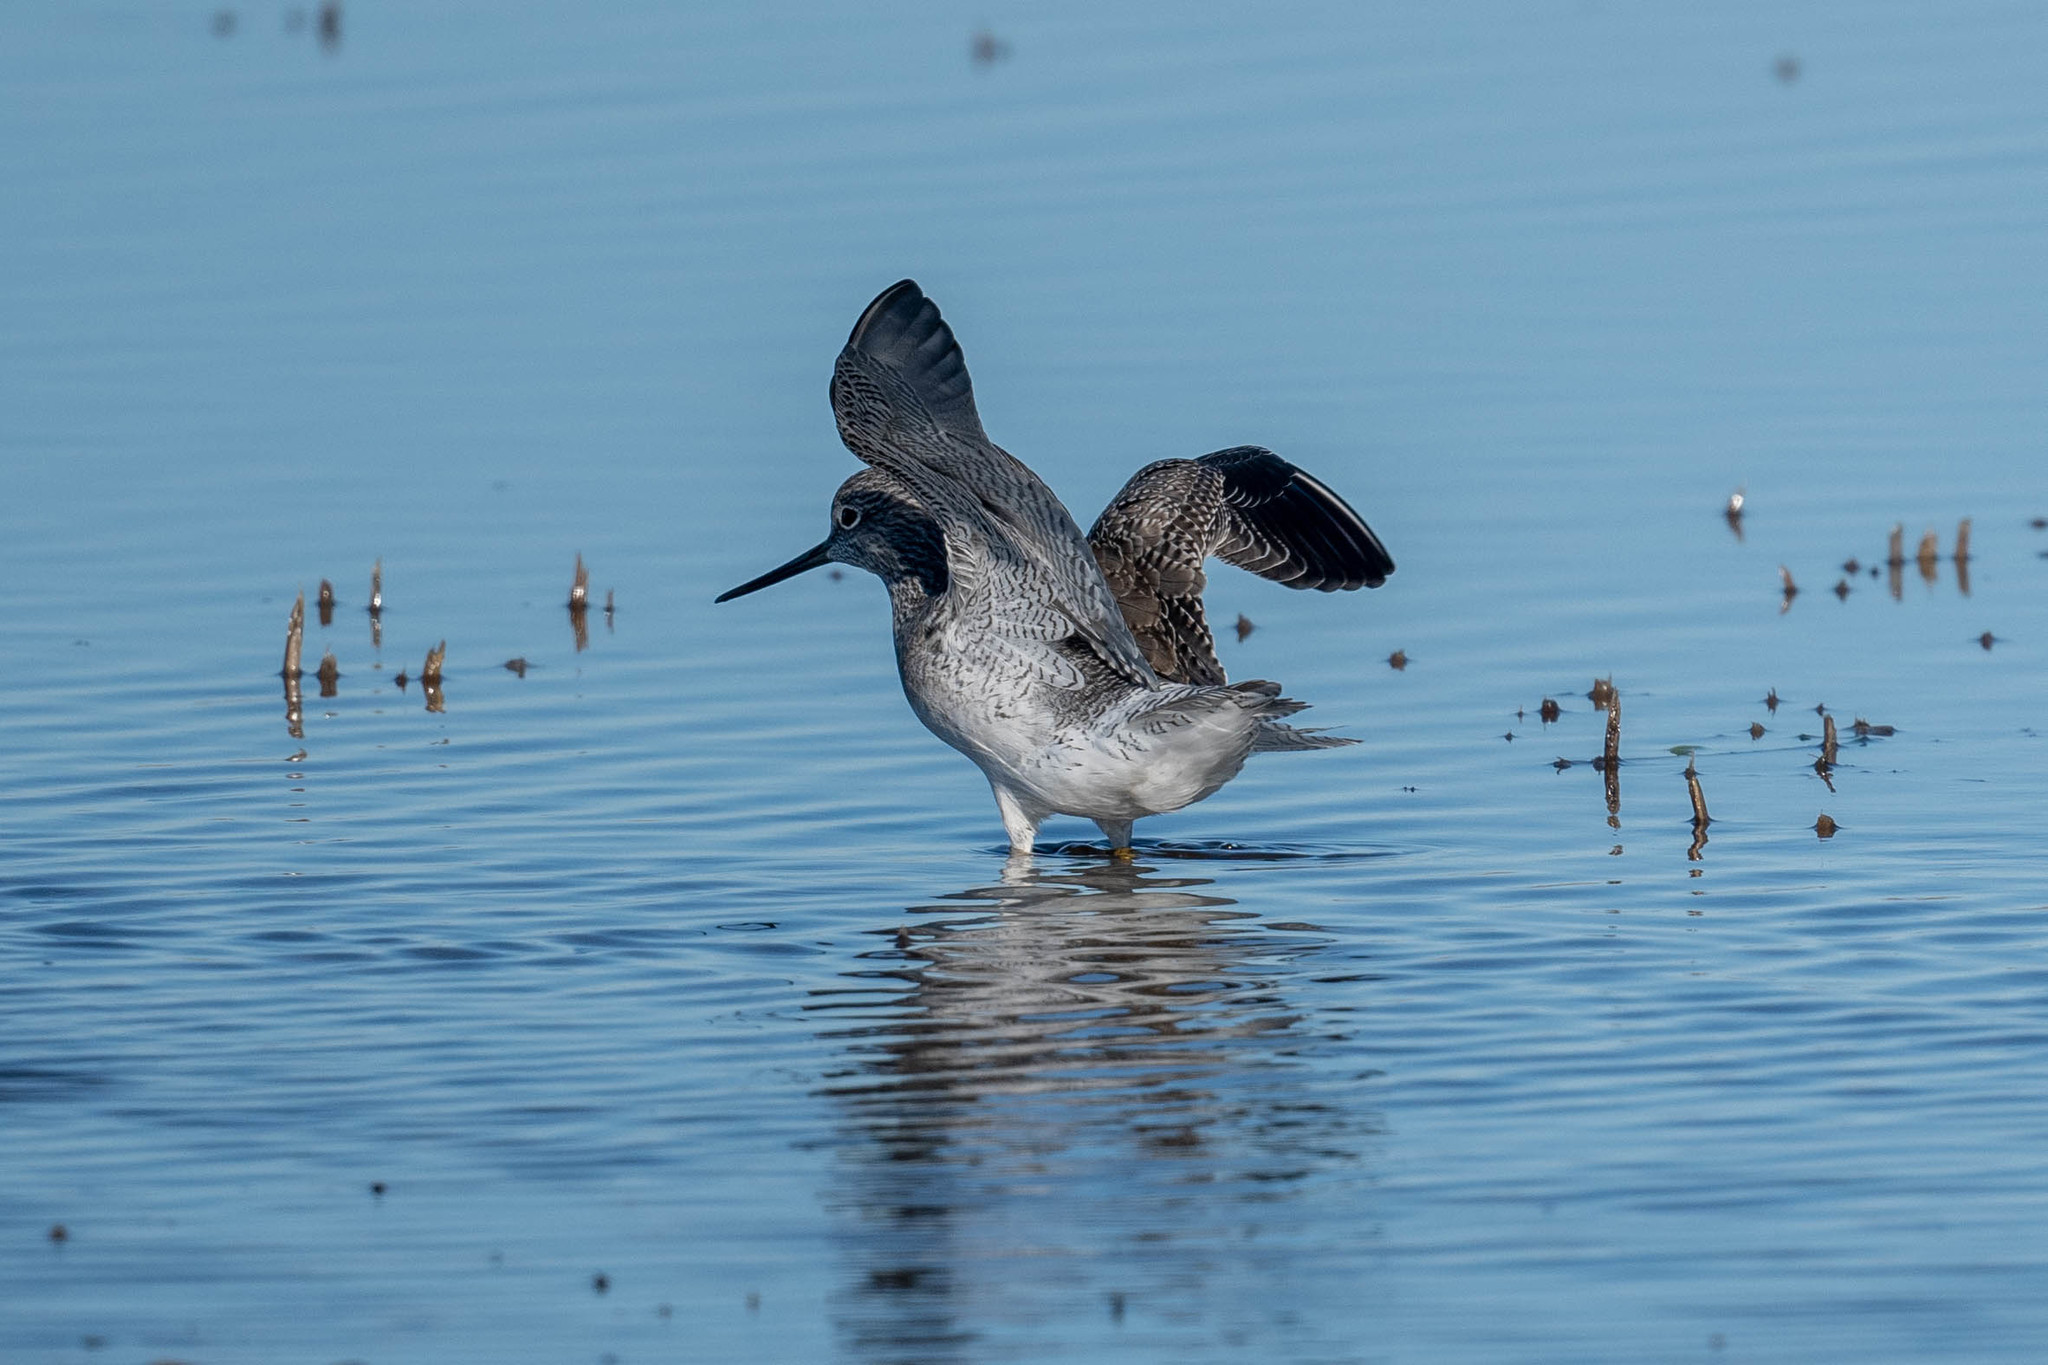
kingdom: Animalia
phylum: Chordata
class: Aves
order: Charadriiformes
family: Scolopacidae
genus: Tringa
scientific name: Tringa melanoleuca
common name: Greater yellowlegs
